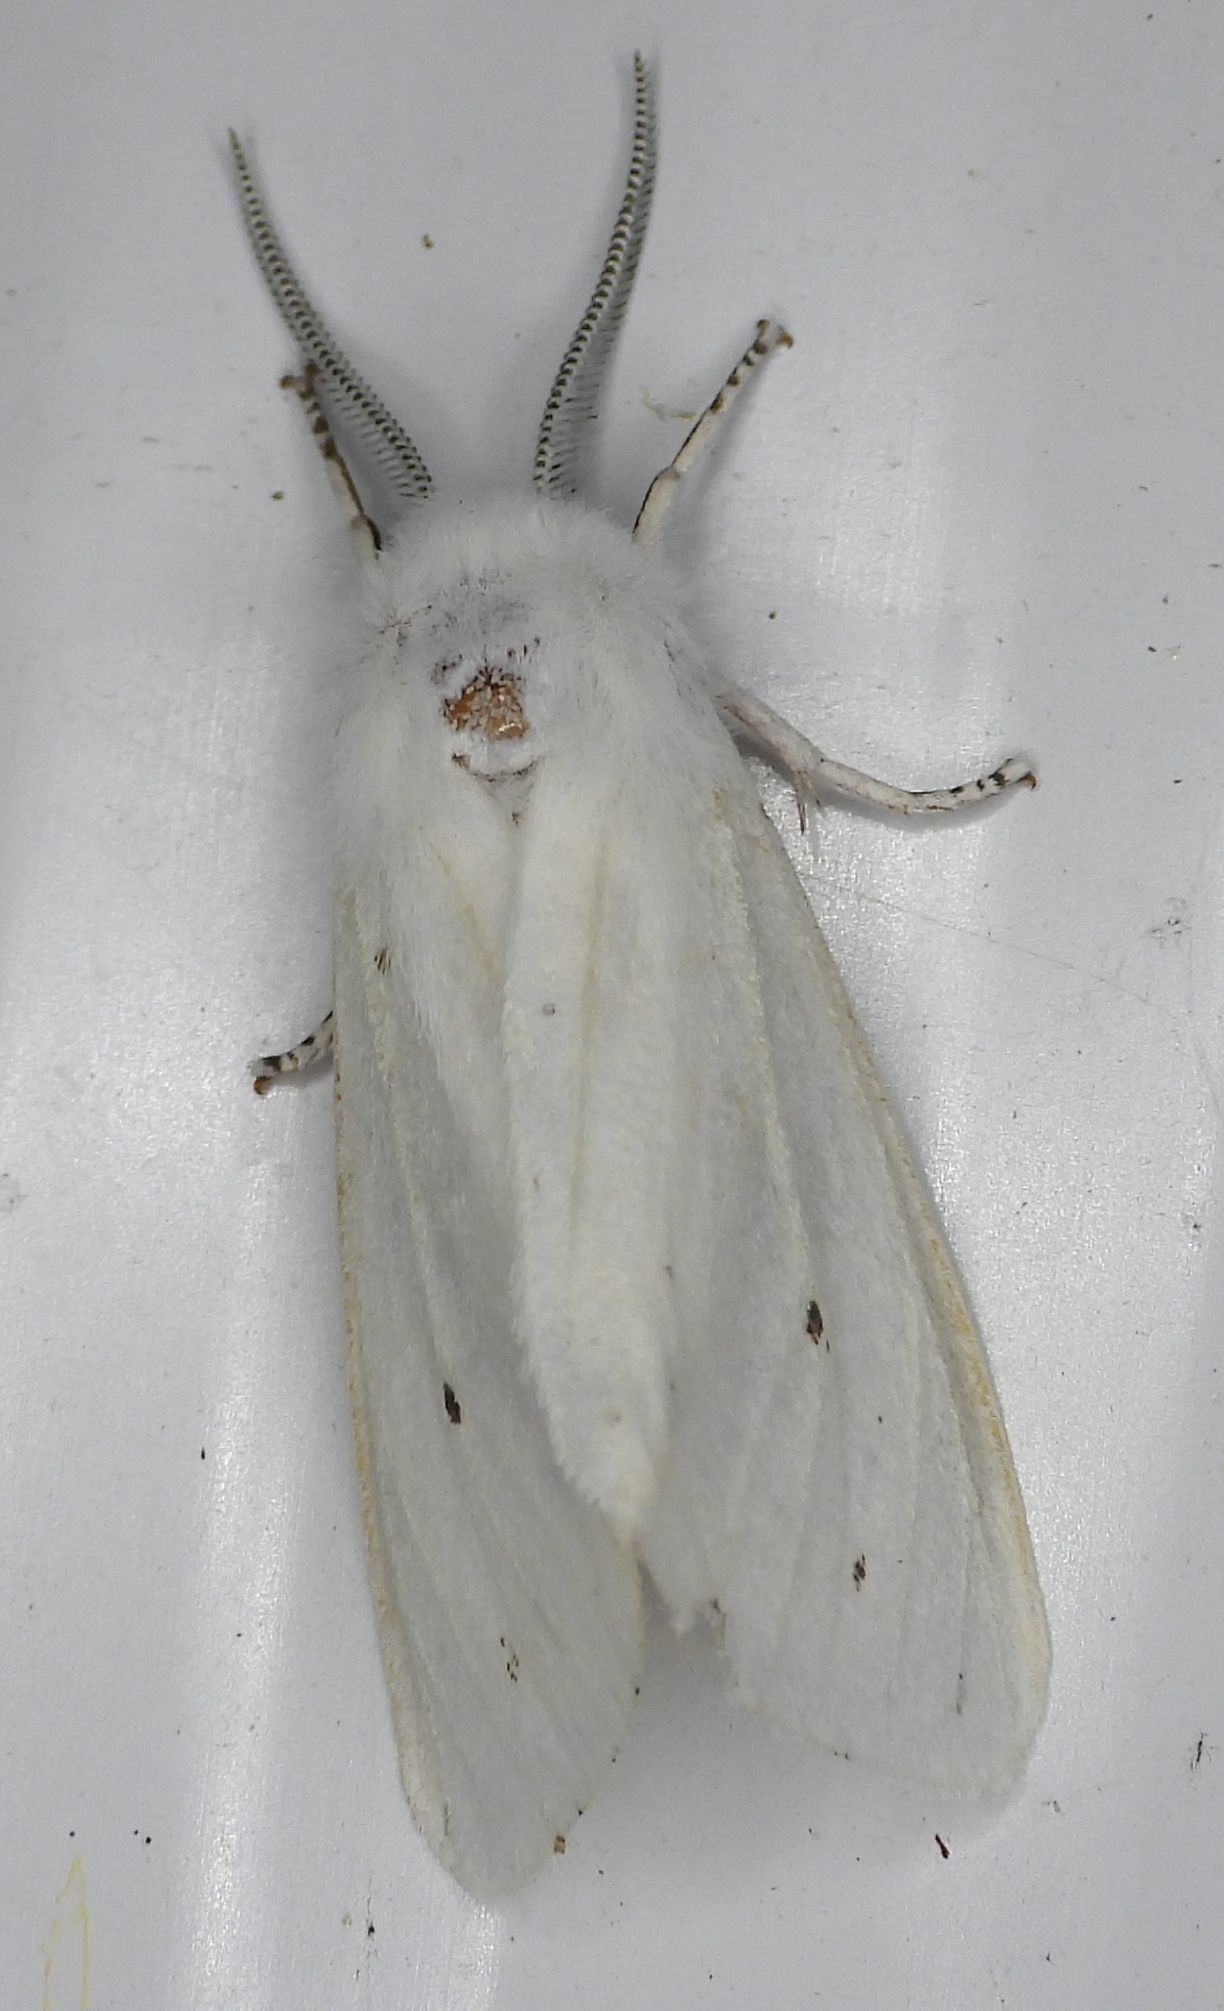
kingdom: Animalia
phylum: Arthropoda
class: Insecta
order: Lepidoptera
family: Erebidae
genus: Spilosoma
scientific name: Spilosoma virginica
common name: Virginia tiger moth
